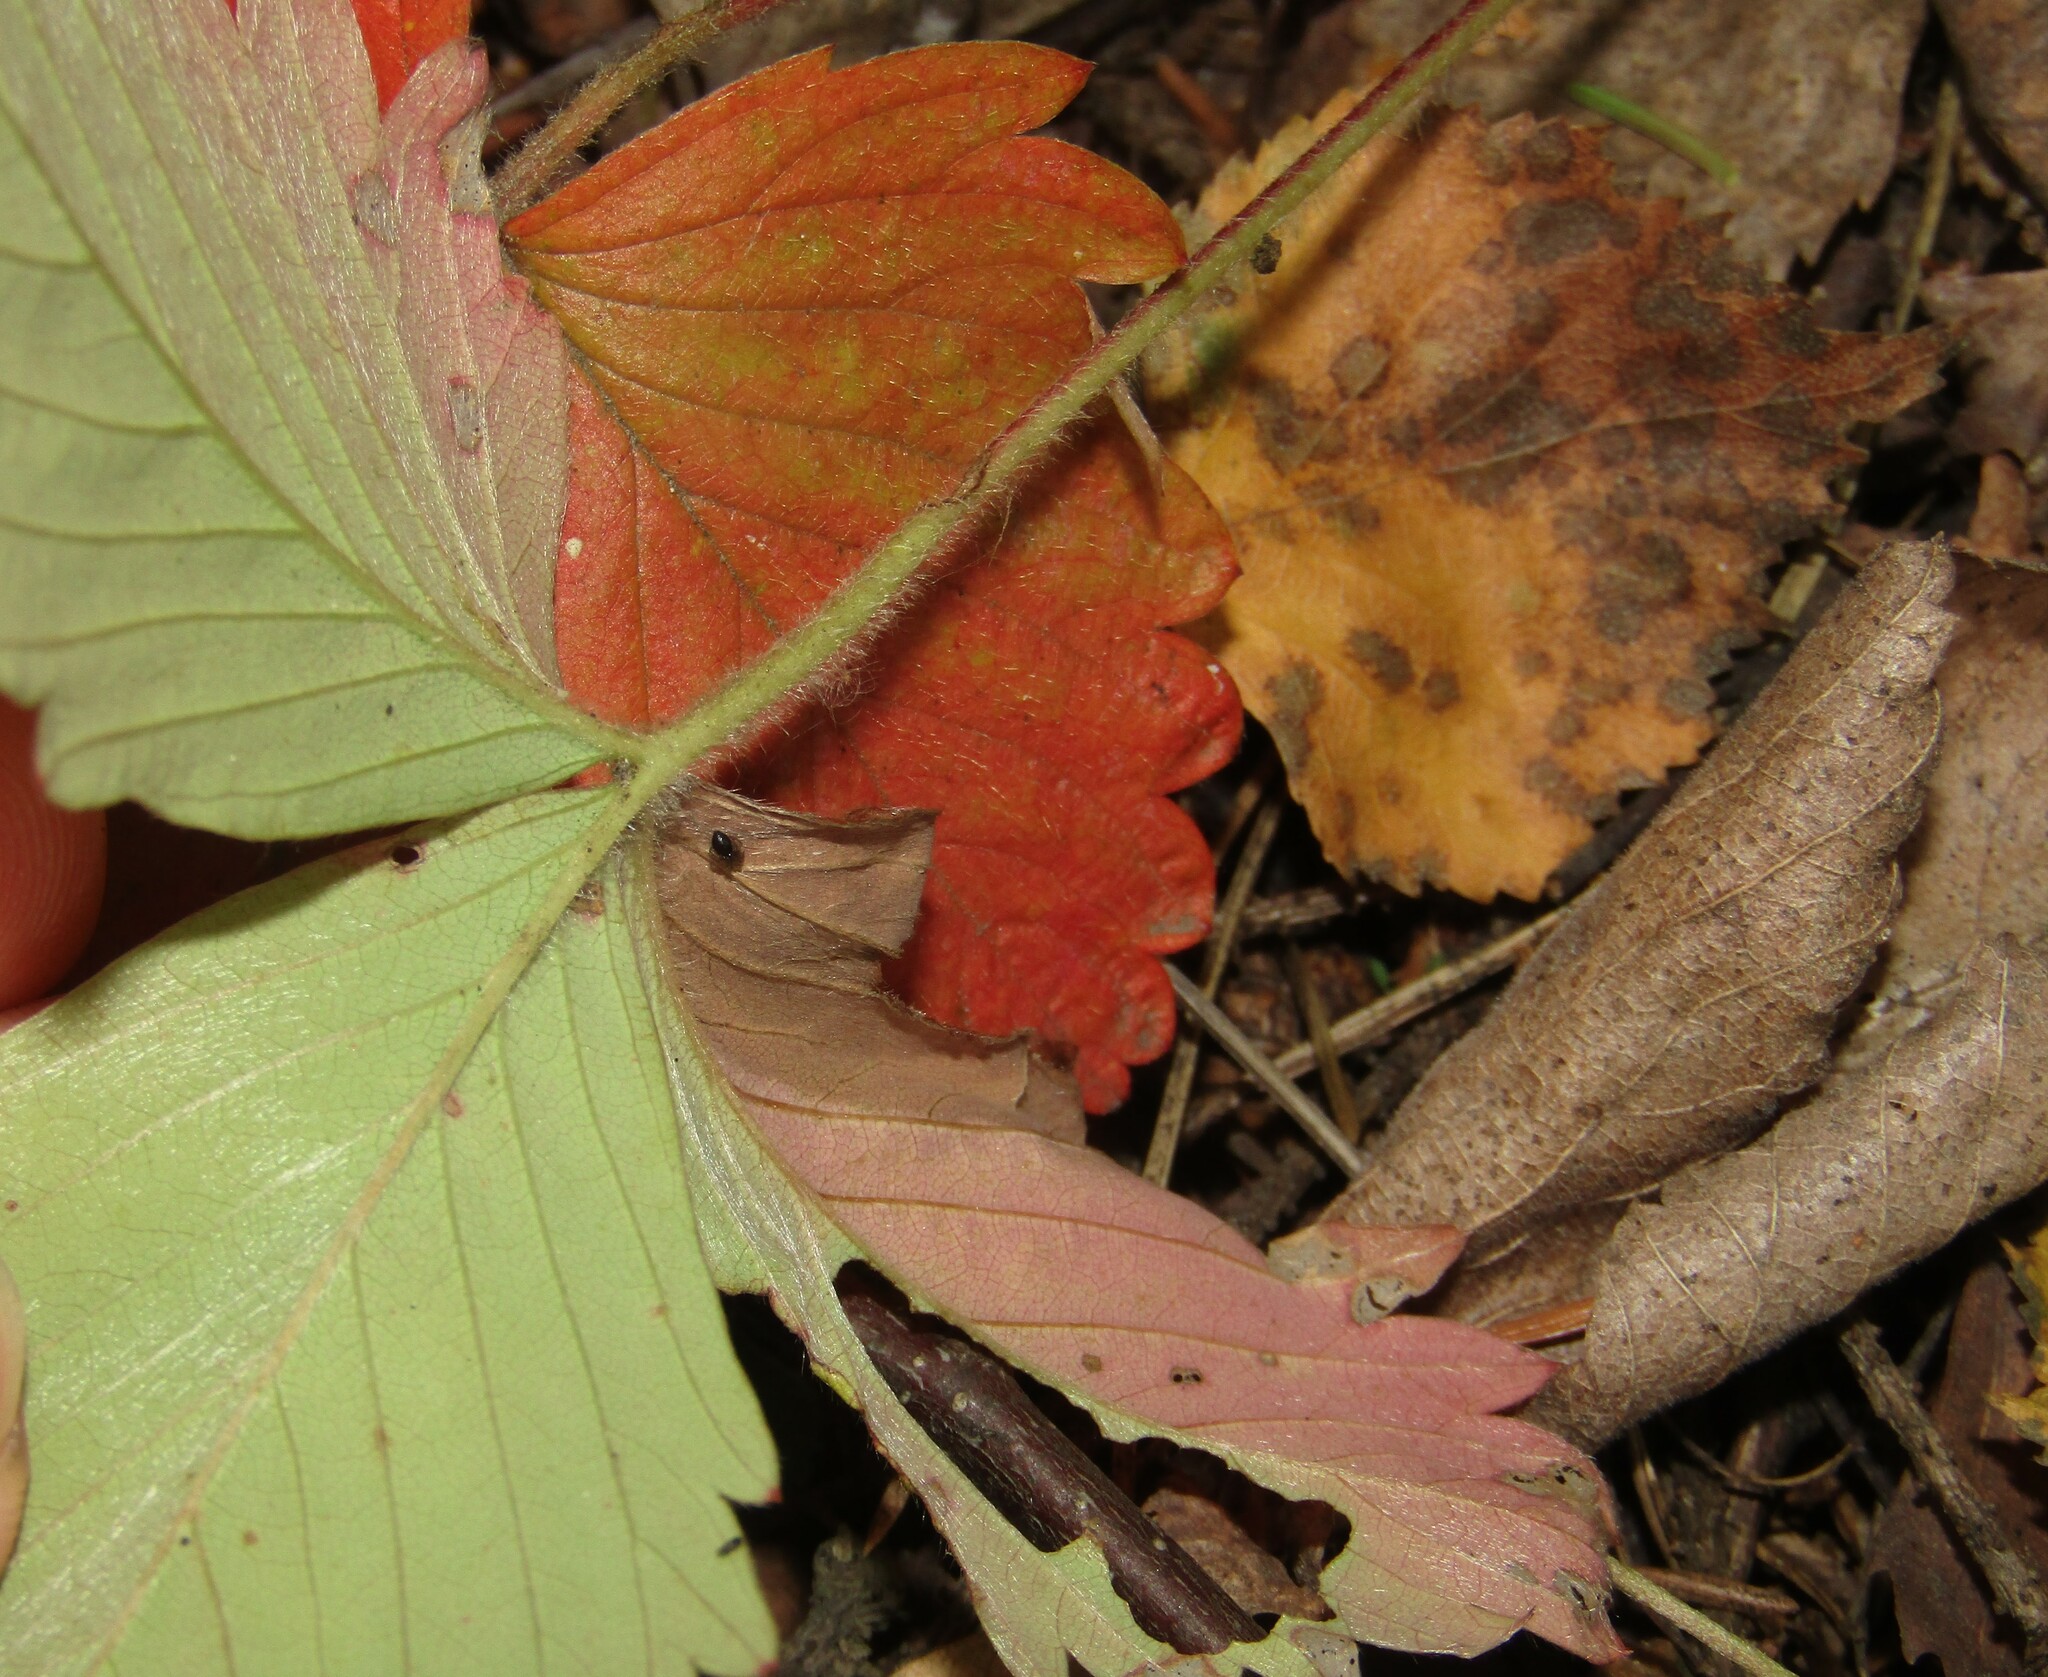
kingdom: Plantae
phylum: Tracheophyta
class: Magnoliopsida
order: Rosales
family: Rosaceae
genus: Fragaria
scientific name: Fragaria vesca
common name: Wild strawberry
